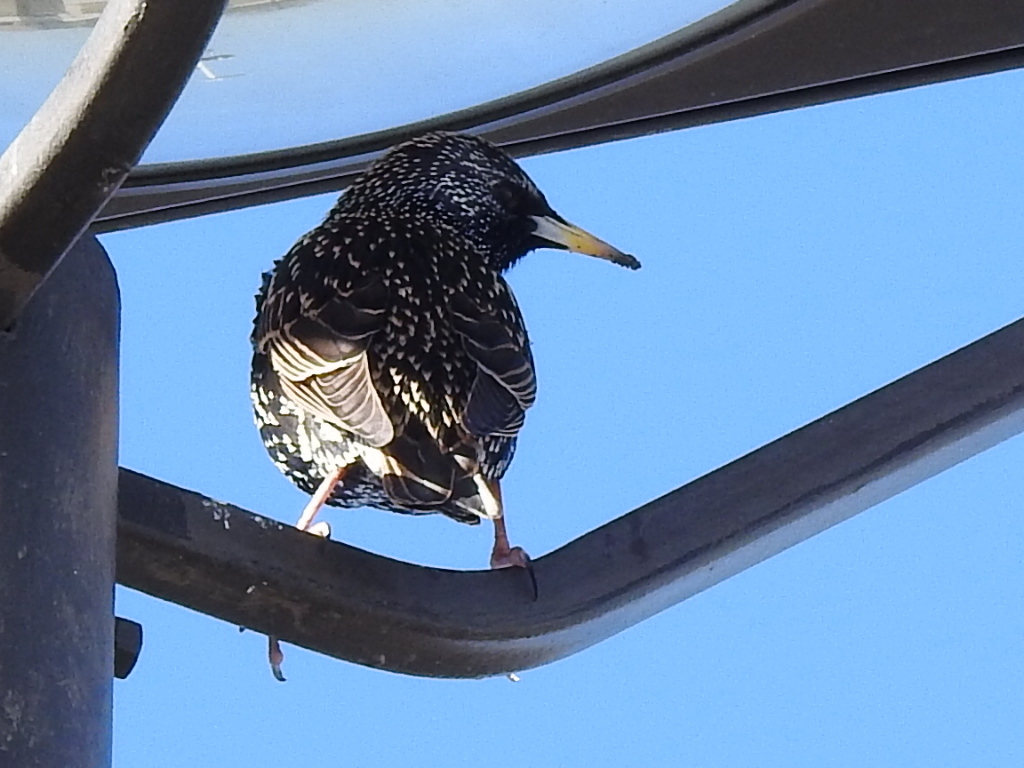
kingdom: Animalia
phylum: Chordata
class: Aves
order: Passeriformes
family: Sturnidae
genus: Sturnus
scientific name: Sturnus vulgaris
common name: Common starling
